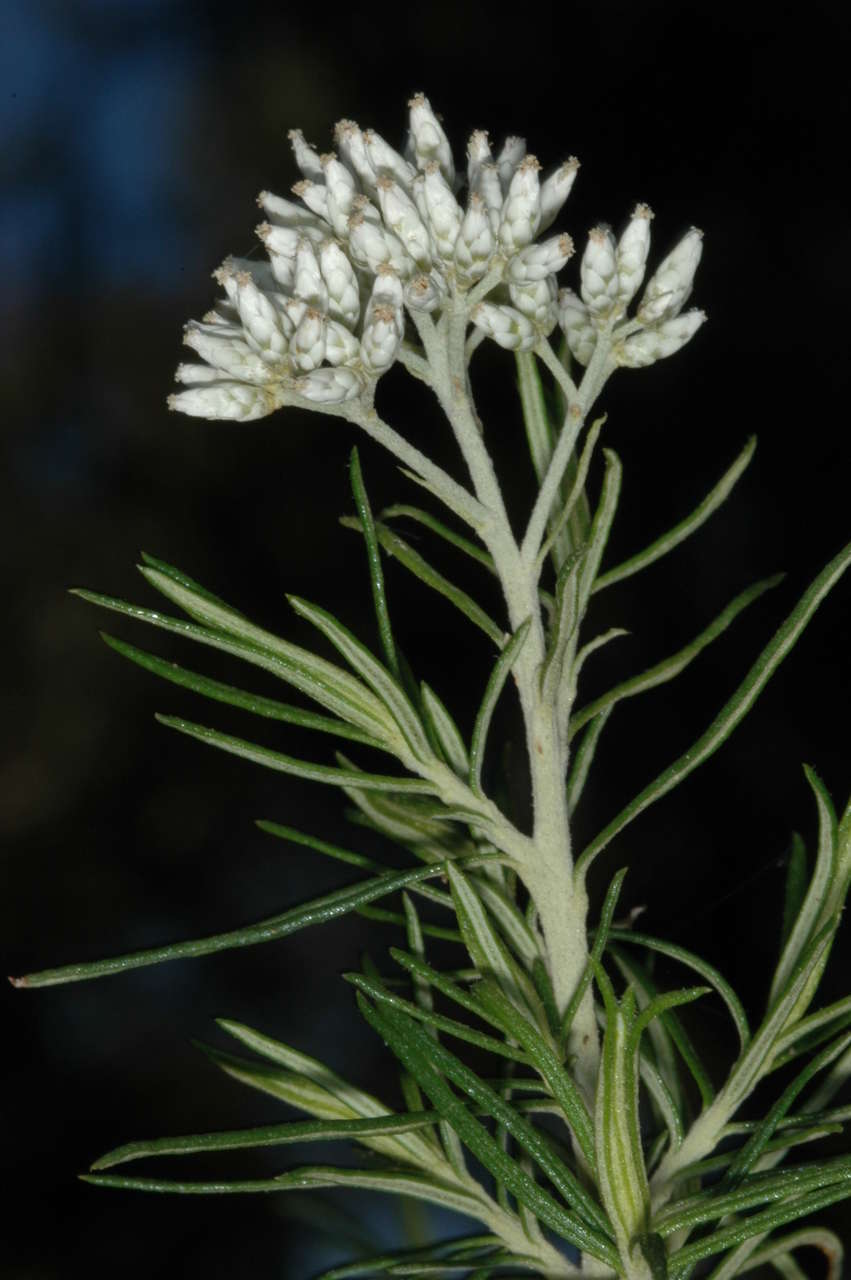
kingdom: Plantae
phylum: Tracheophyta
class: Magnoliopsida
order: Asterales
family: Asteraceae
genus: Cassinia
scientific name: Cassinia longifolia
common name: Longleaf-dogwood
